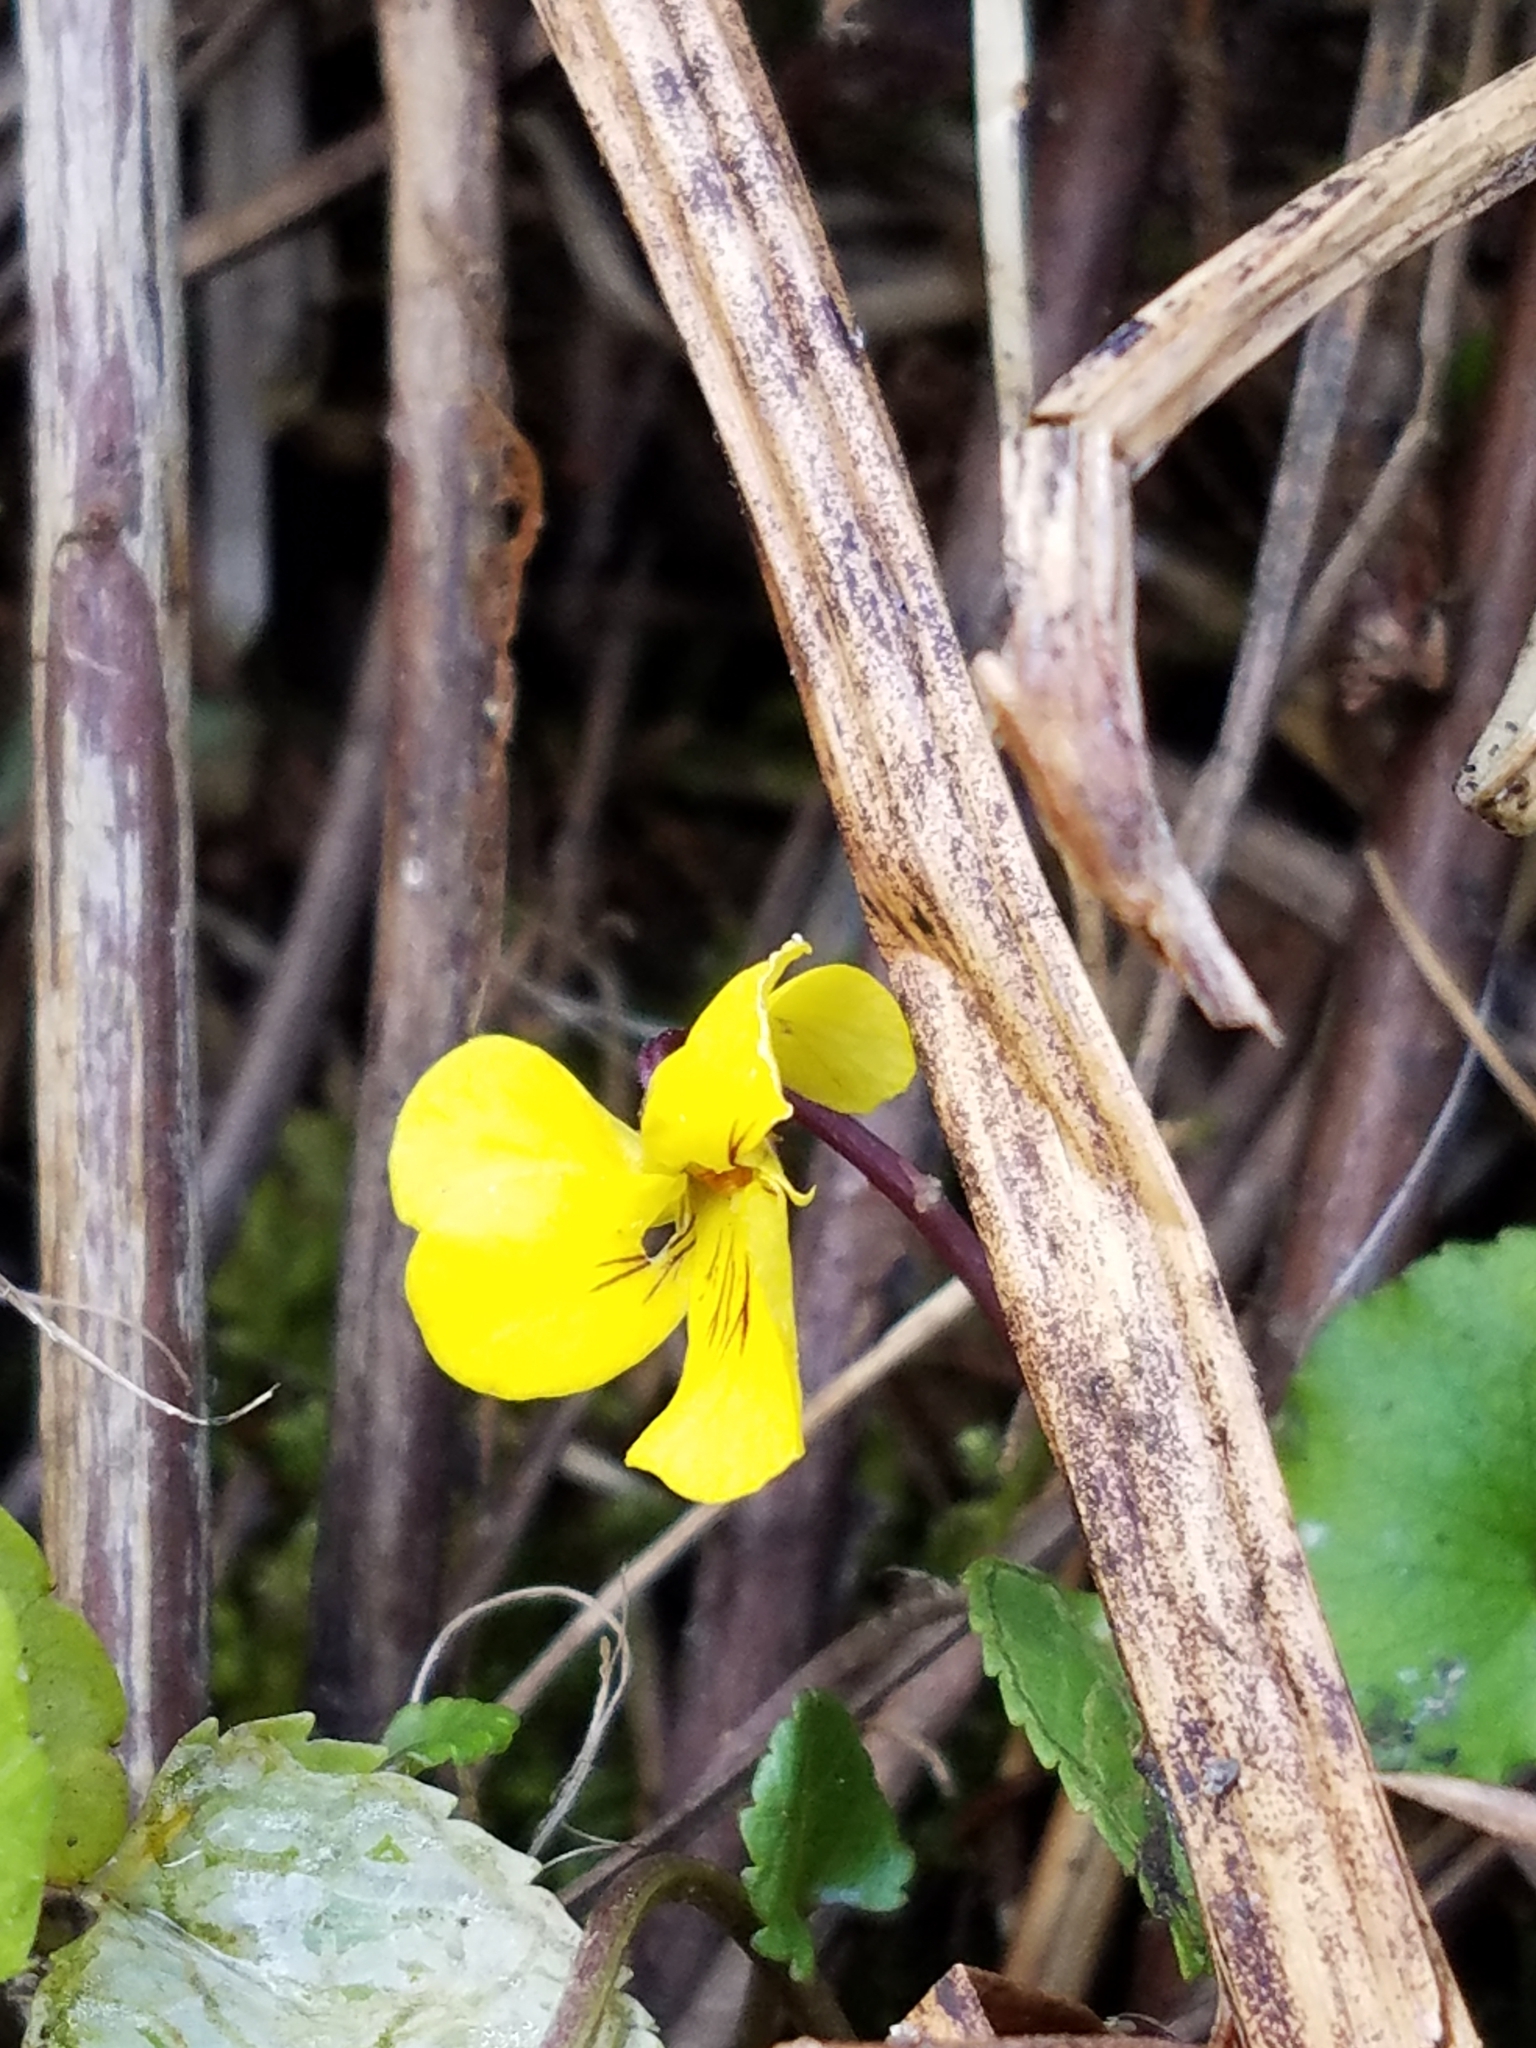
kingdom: Plantae
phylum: Tracheophyta
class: Magnoliopsida
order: Malpighiales
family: Violaceae
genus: Viola
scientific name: Viola orbiculata
